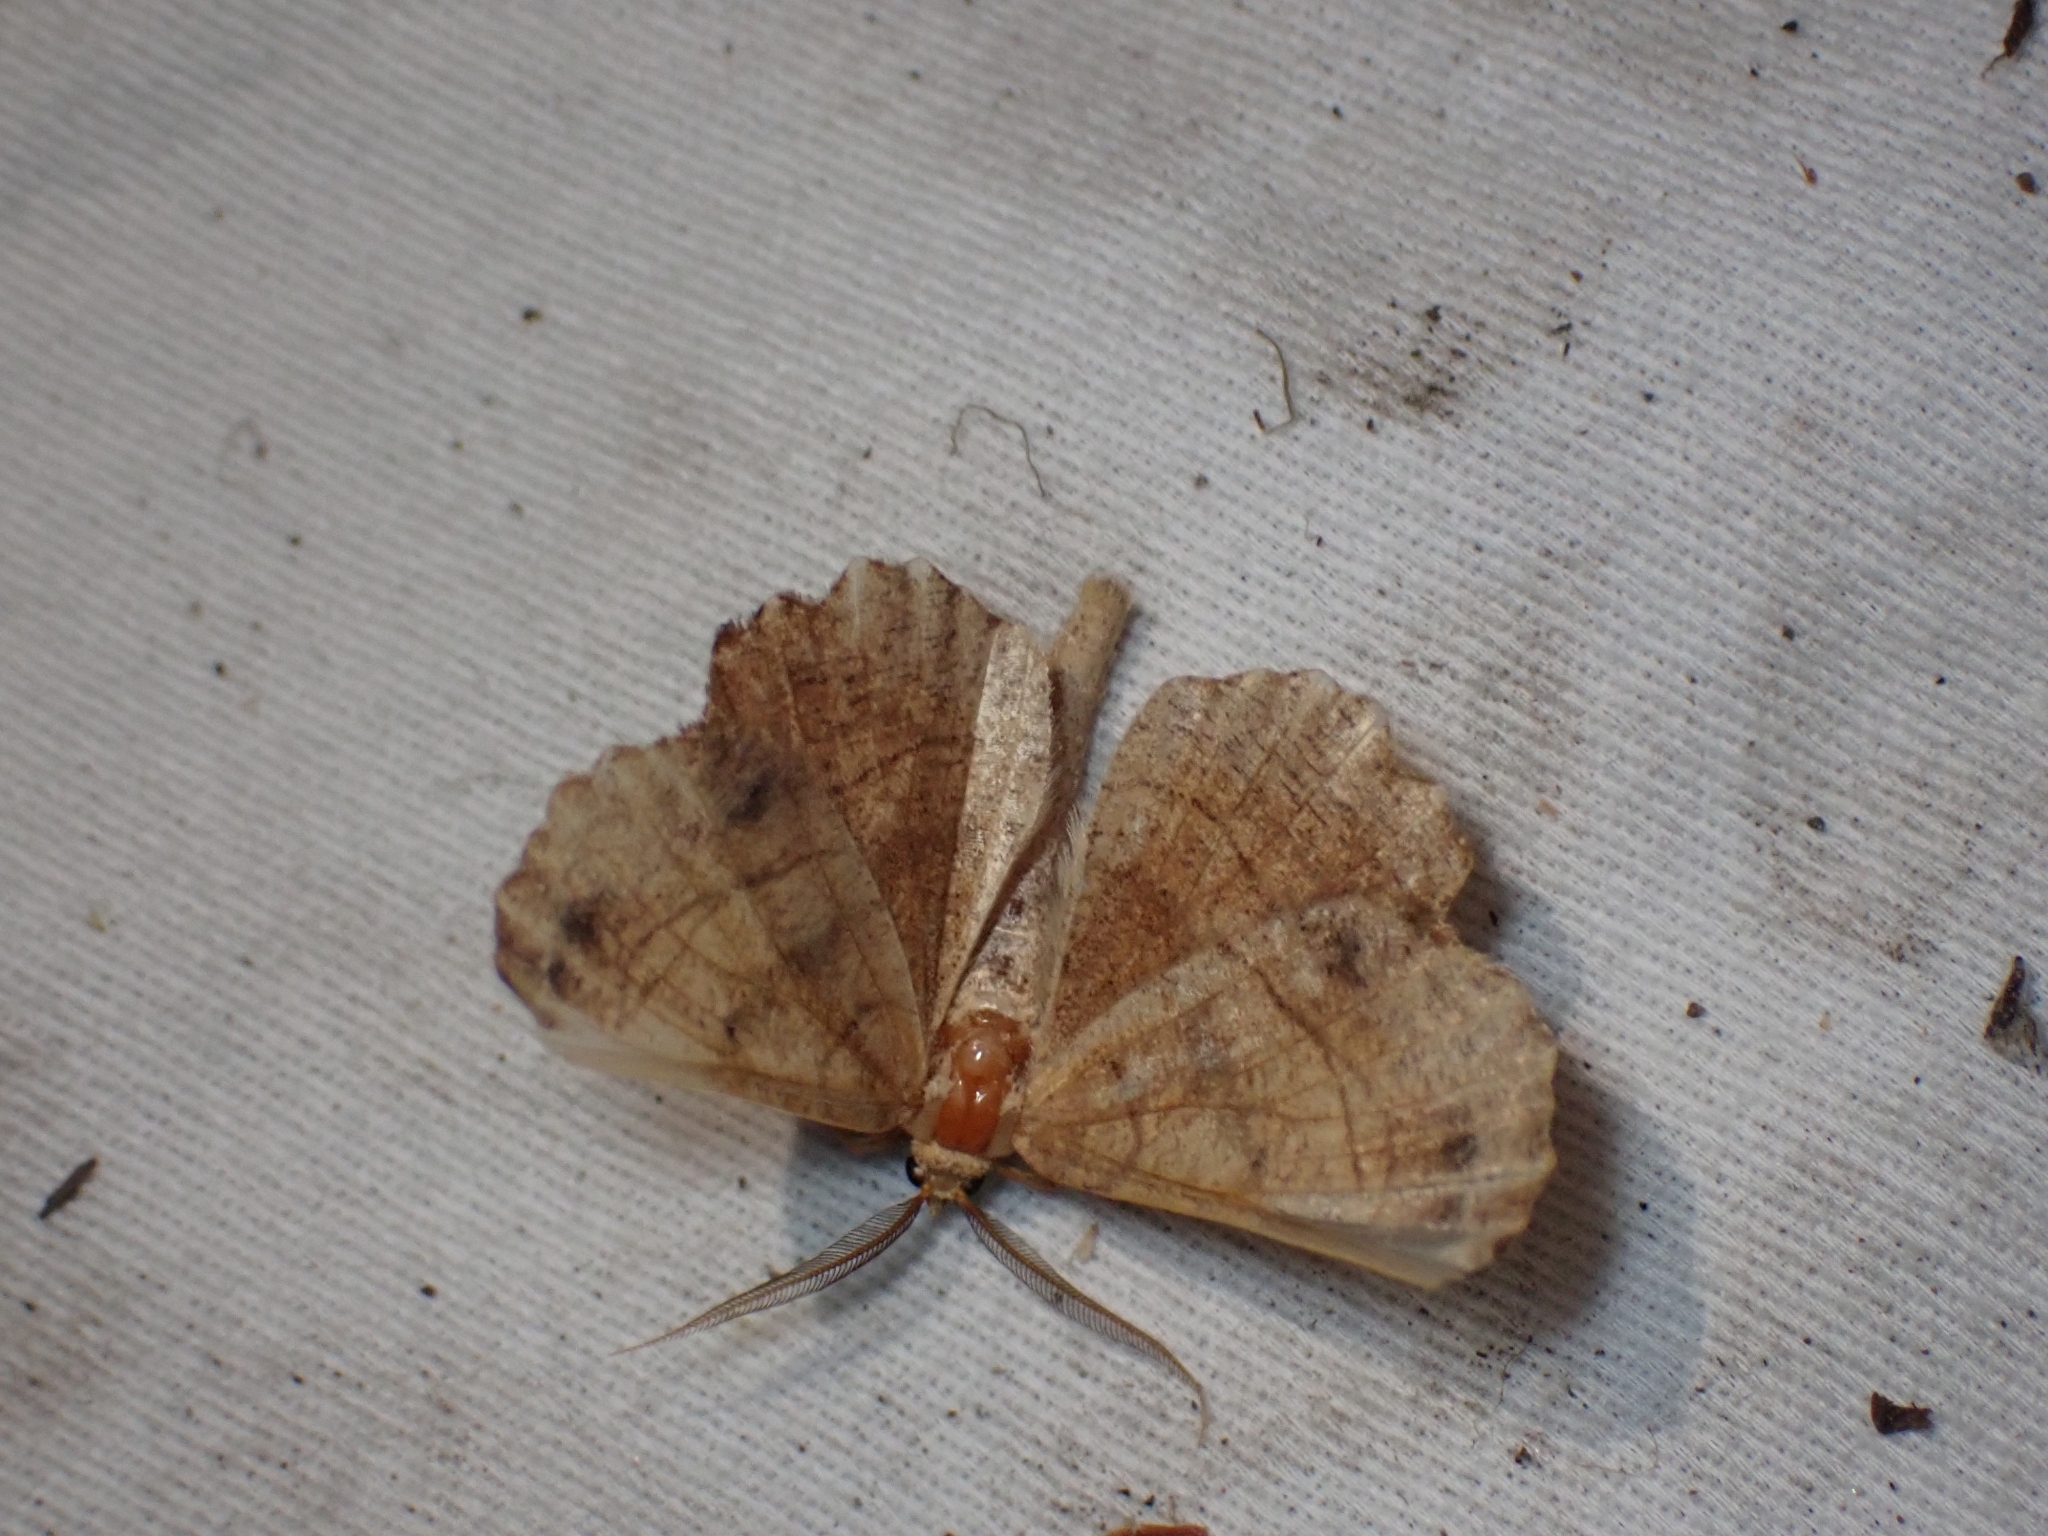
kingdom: Animalia
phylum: Arthropoda
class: Insecta
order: Lepidoptera
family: Geometridae
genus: Euchlaena
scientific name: Euchlaena johnsonaria
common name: Johnson's euchlaena
